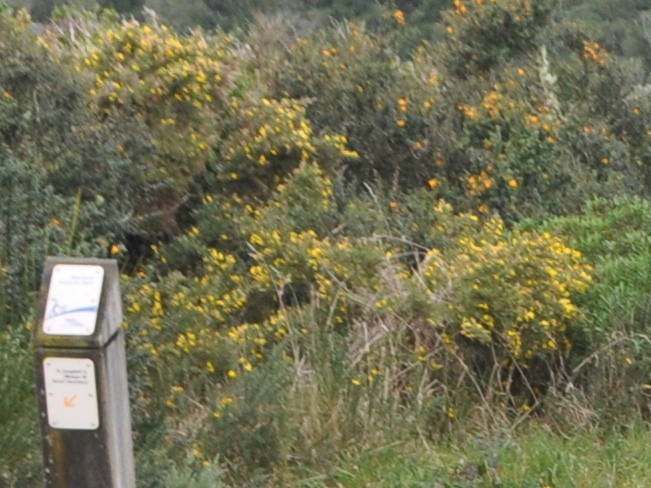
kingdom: Plantae
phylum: Tracheophyta
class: Magnoliopsida
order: Fabales
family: Fabaceae
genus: Ulex
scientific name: Ulex europaeus
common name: Common gorse
